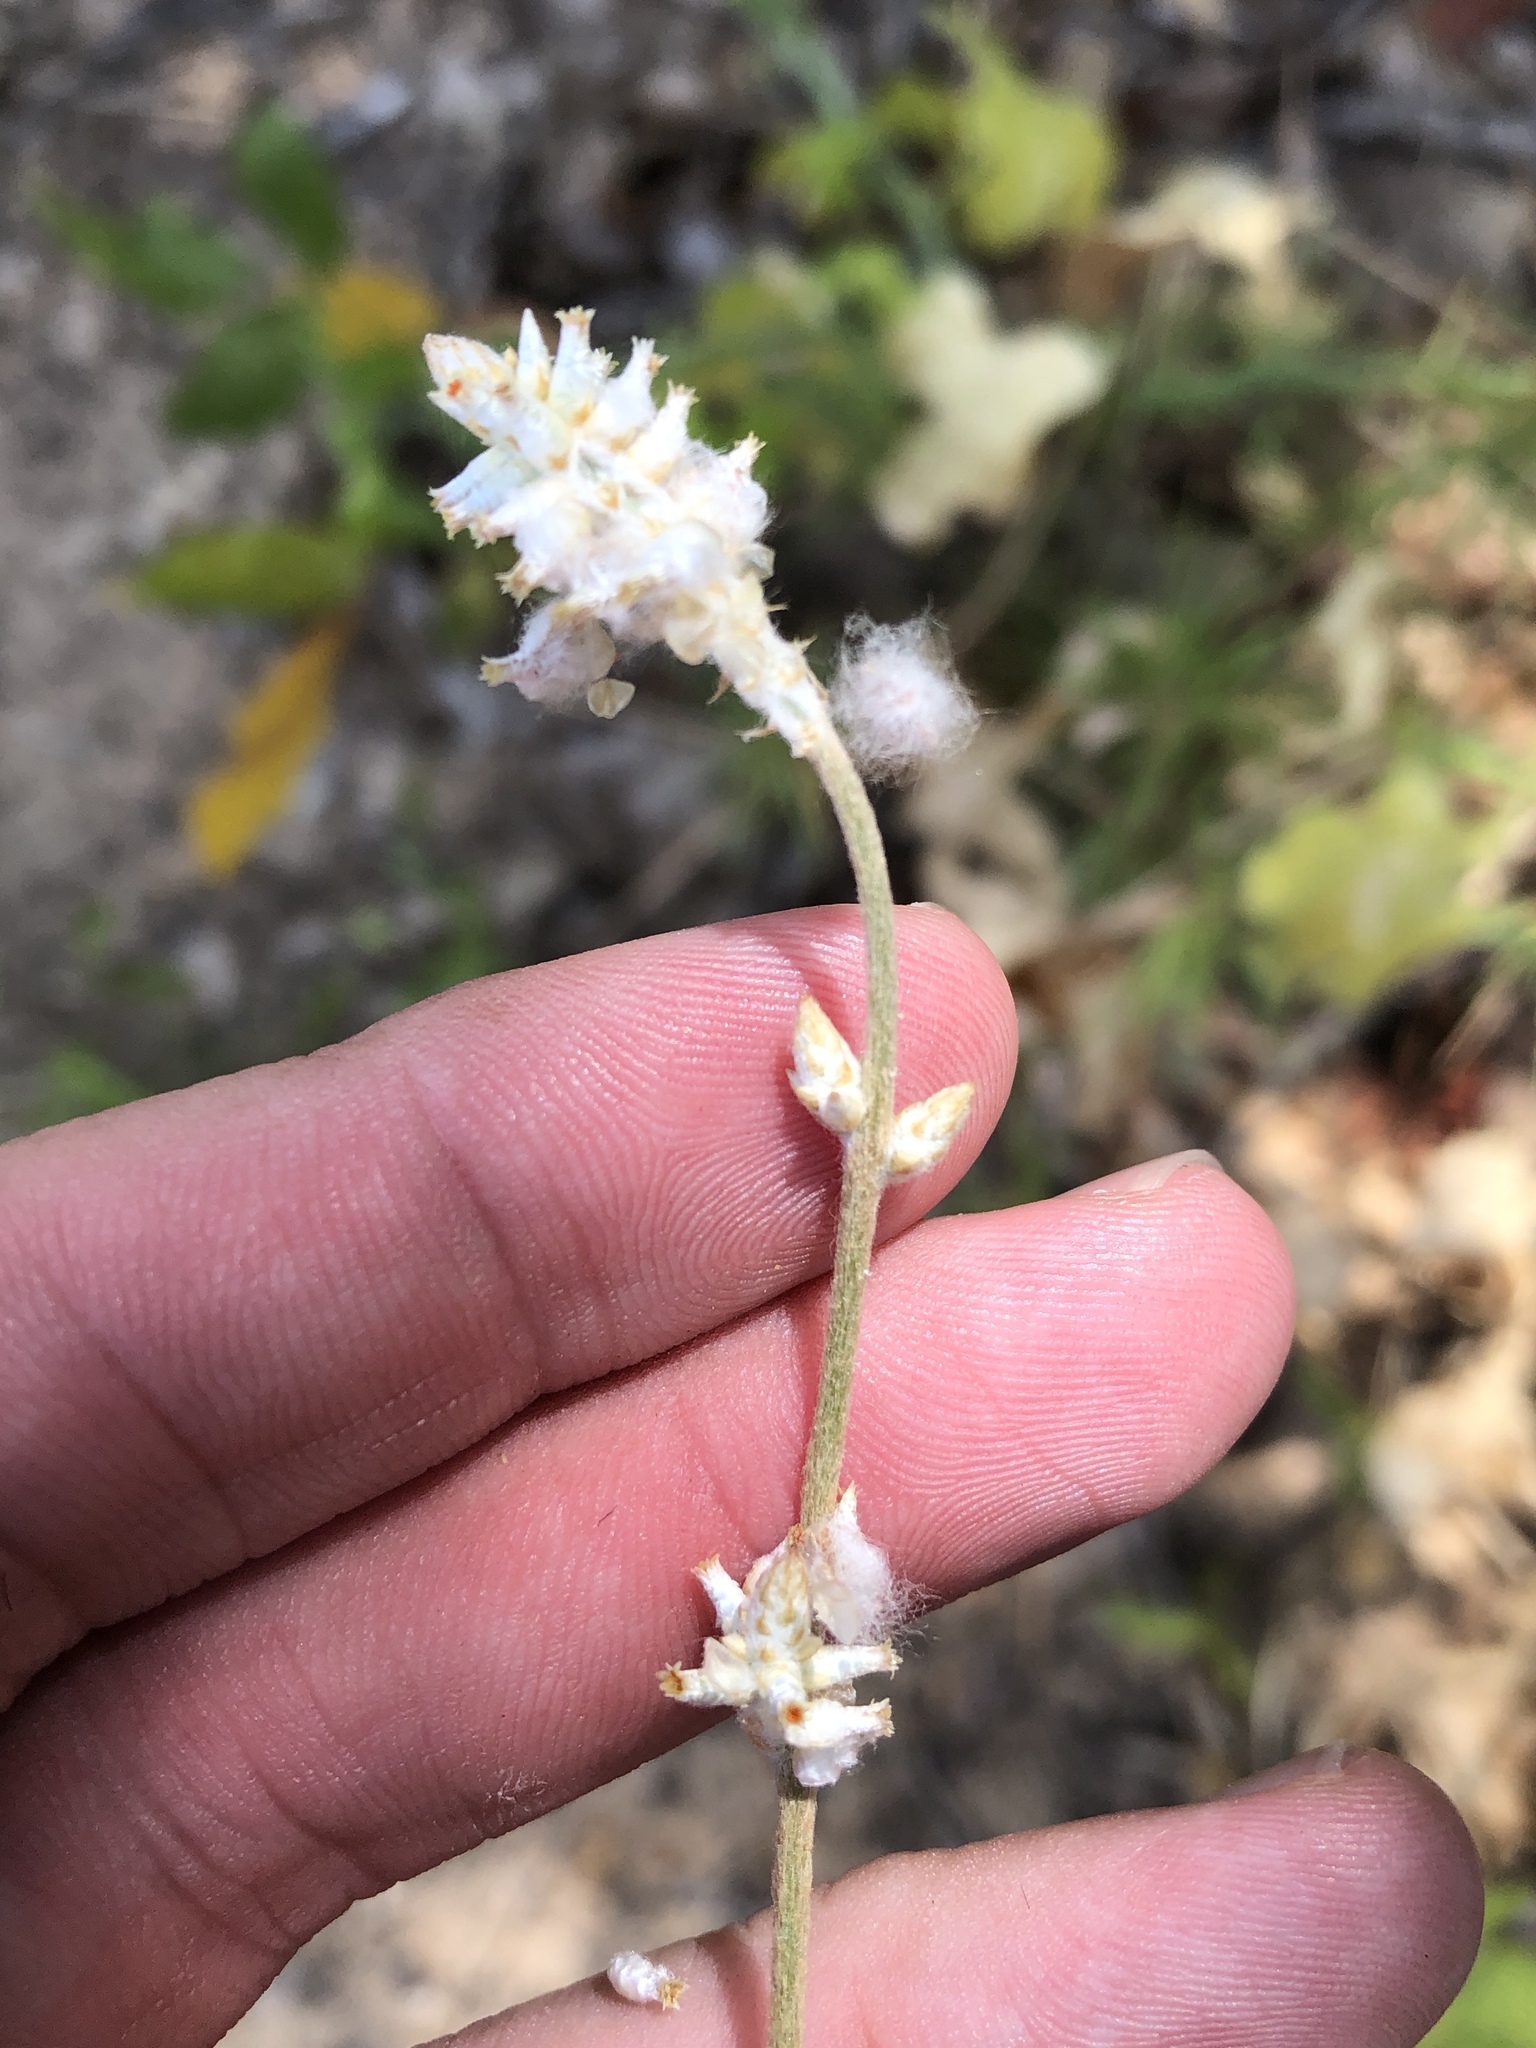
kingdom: Plantae
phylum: Tracheophyta
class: Magnoliopsida
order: Caryophyllales
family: Amaranthaceae
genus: Froelichia
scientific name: Froelichia floridana
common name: Florida snake-cotton
